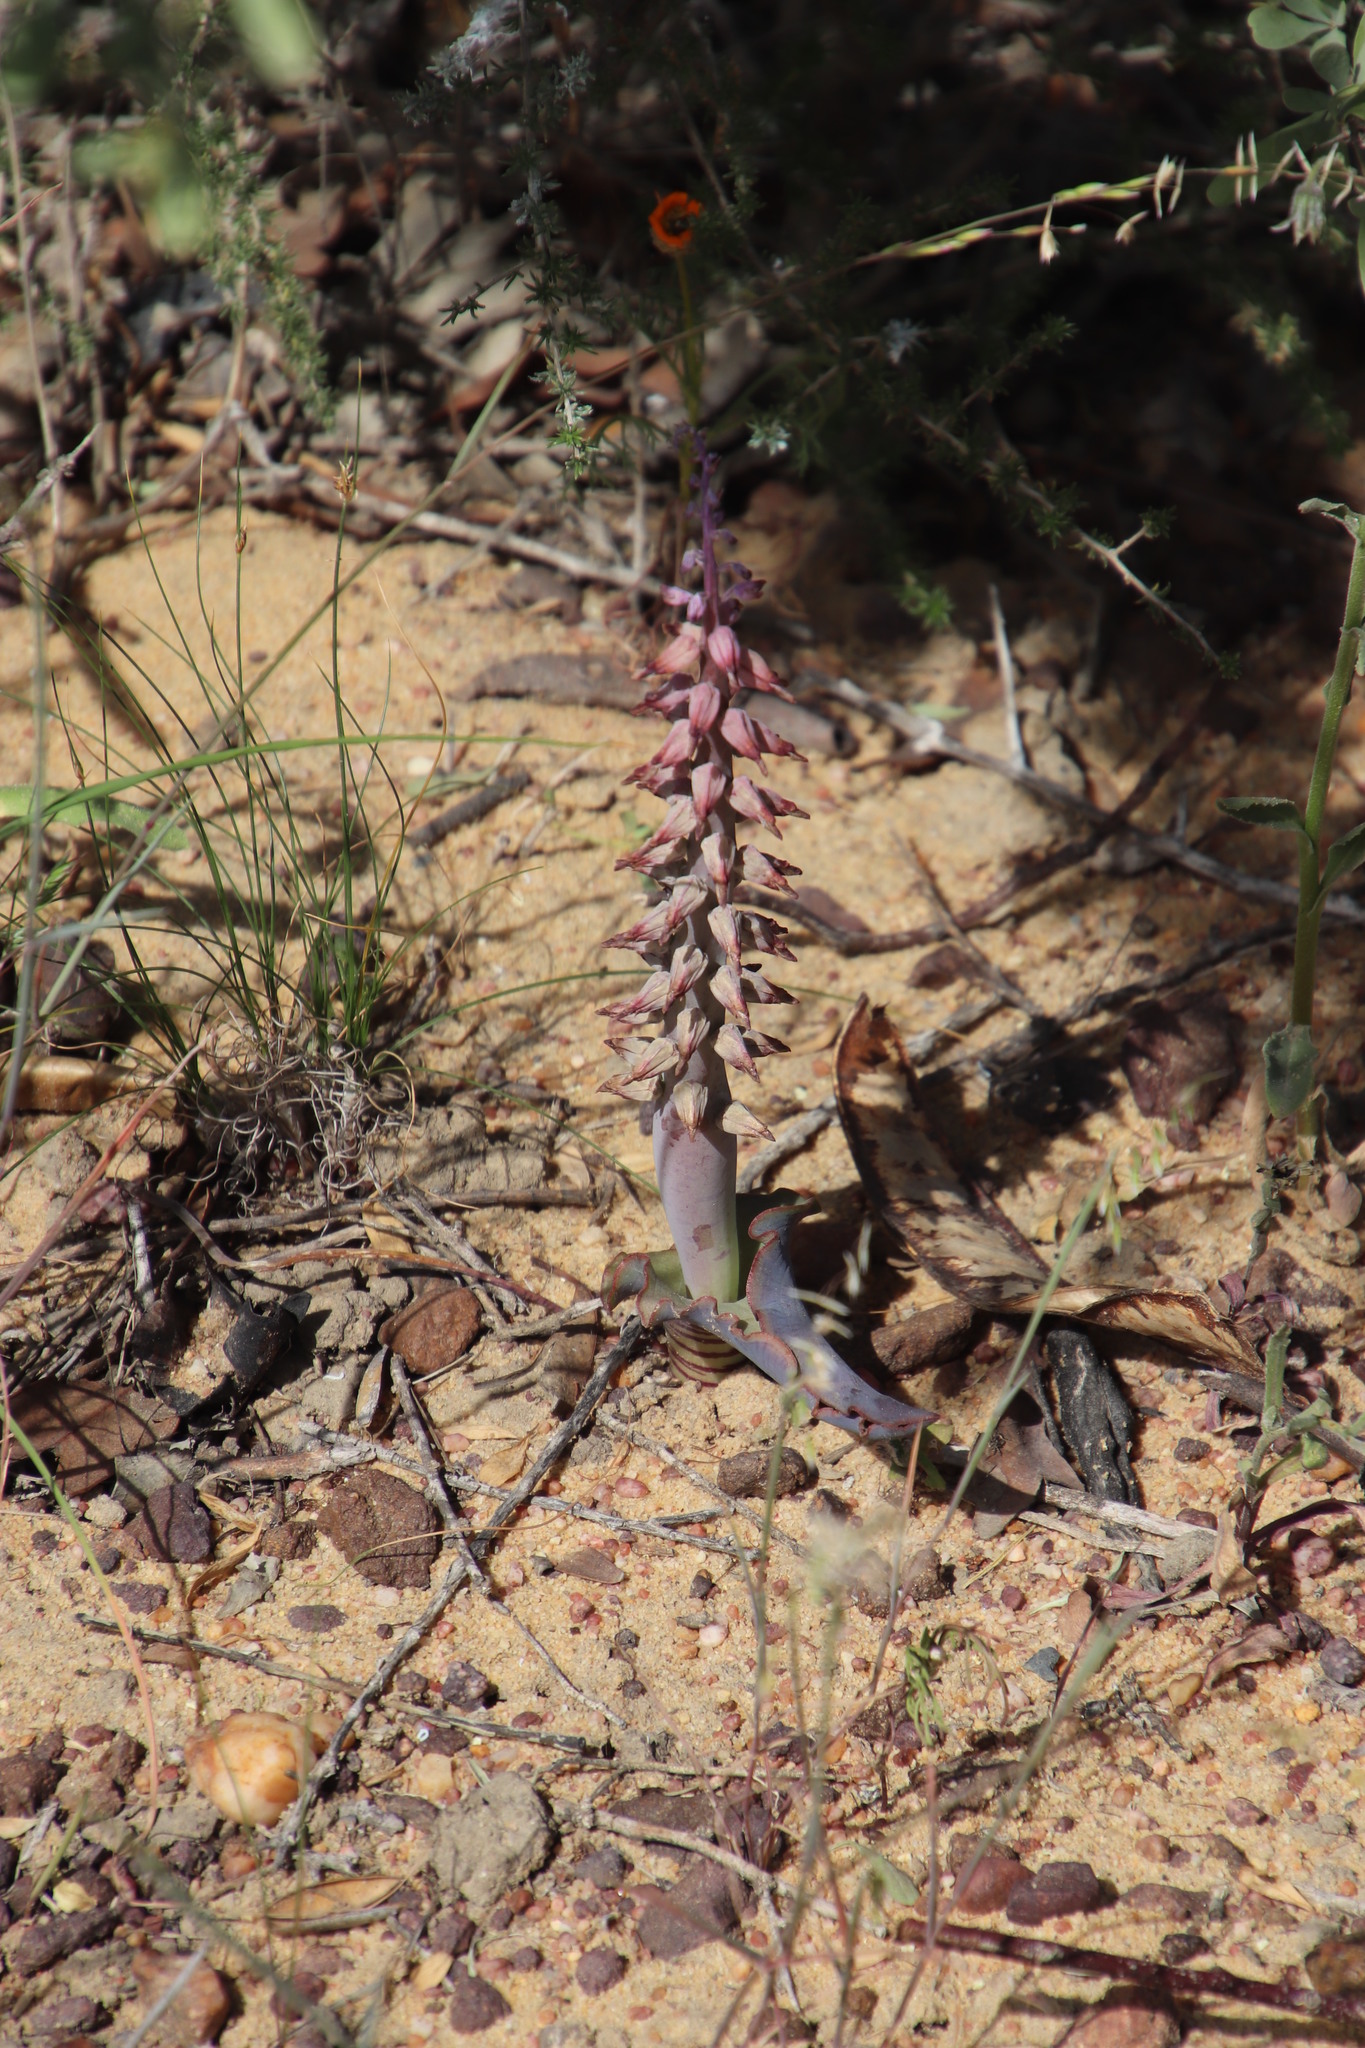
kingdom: Plantae
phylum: Tracheophyta
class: Liliopsida
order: Asparagales
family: Asparagaceae
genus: Lachenalia
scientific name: Lachenalia violacea
